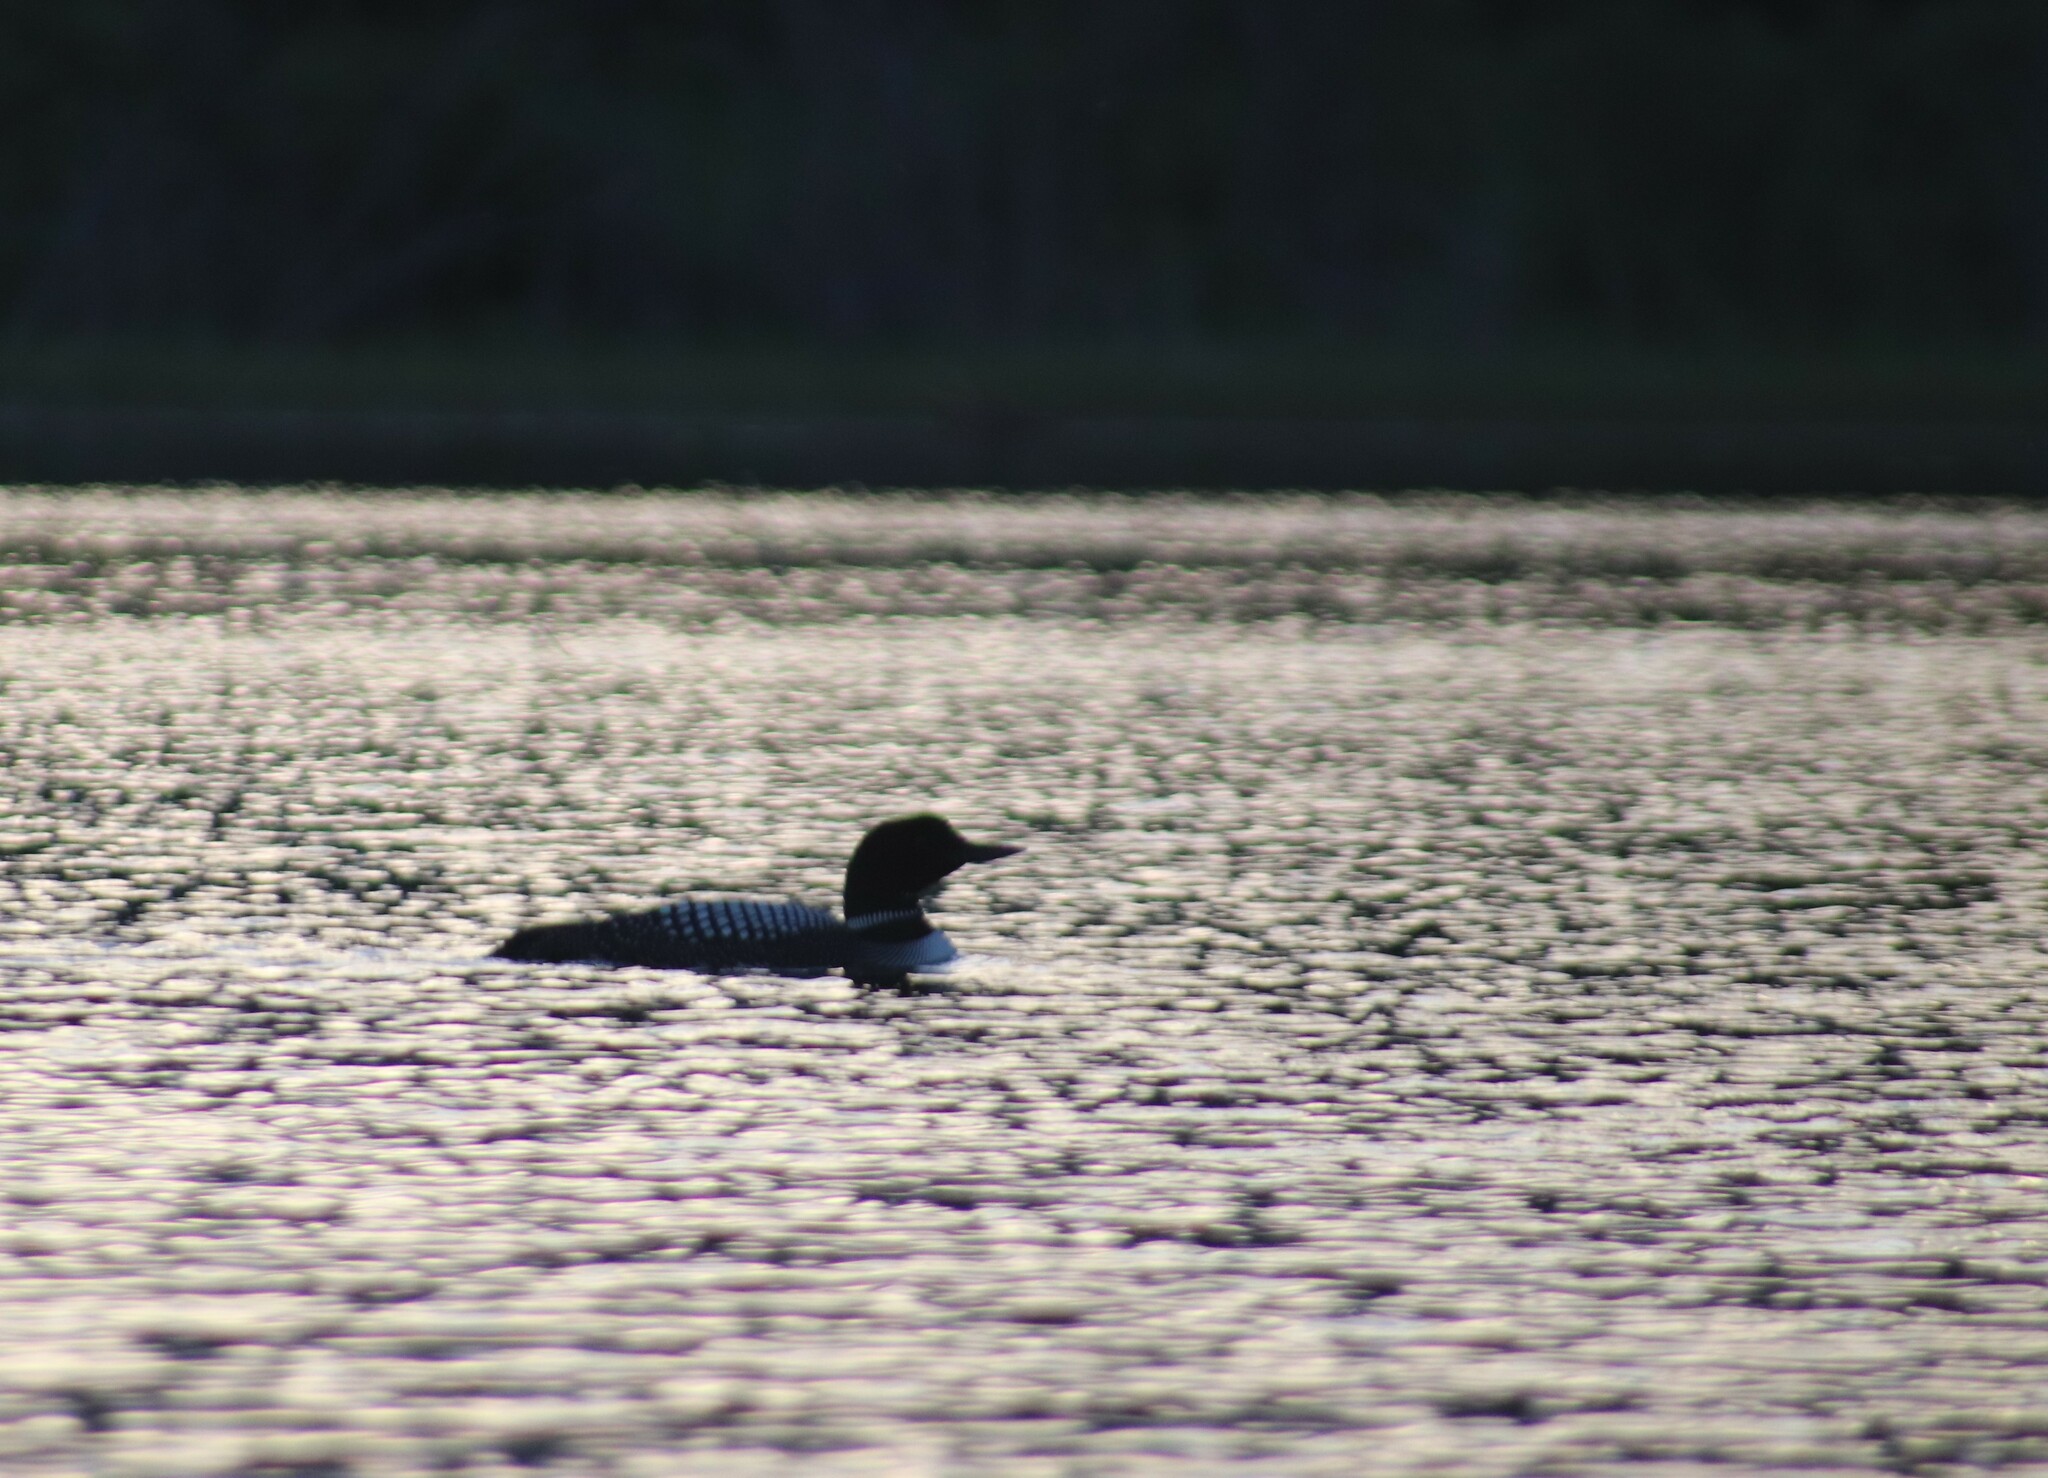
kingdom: Animalia
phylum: Chordata
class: Aves
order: Gaviiformes
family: Gaviidae
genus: Gavia
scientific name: Gavia immer
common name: Common loon
